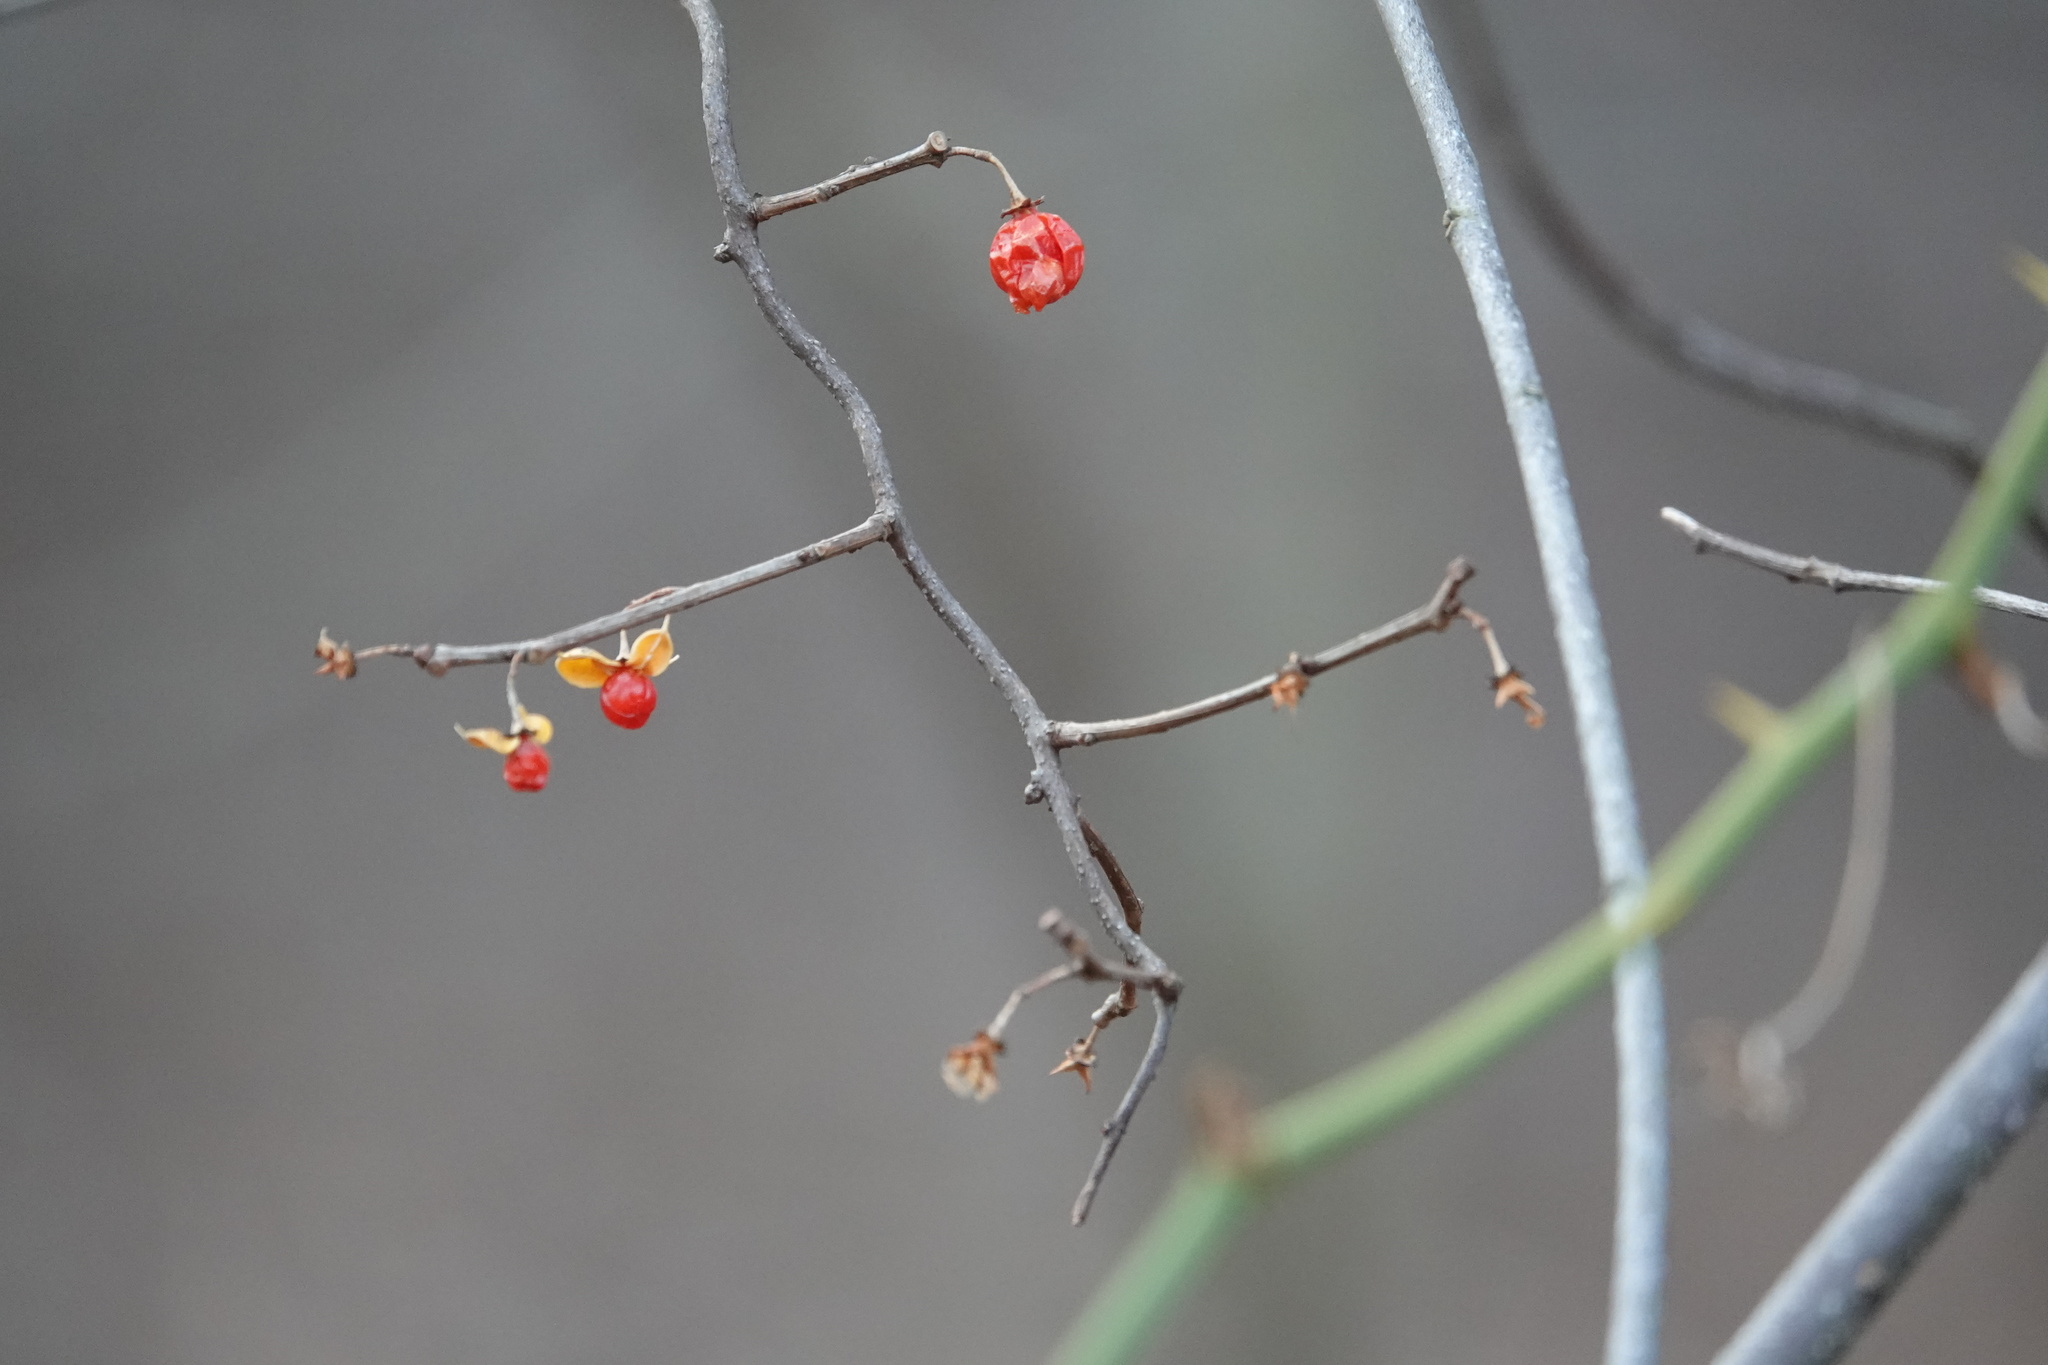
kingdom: Plantae
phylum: Tracheophyta
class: Magnoliopsida
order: Celastrales
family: Celastraceae
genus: Celastrus
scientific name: Celastrus orbiculatus
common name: Oriental bittersweet
